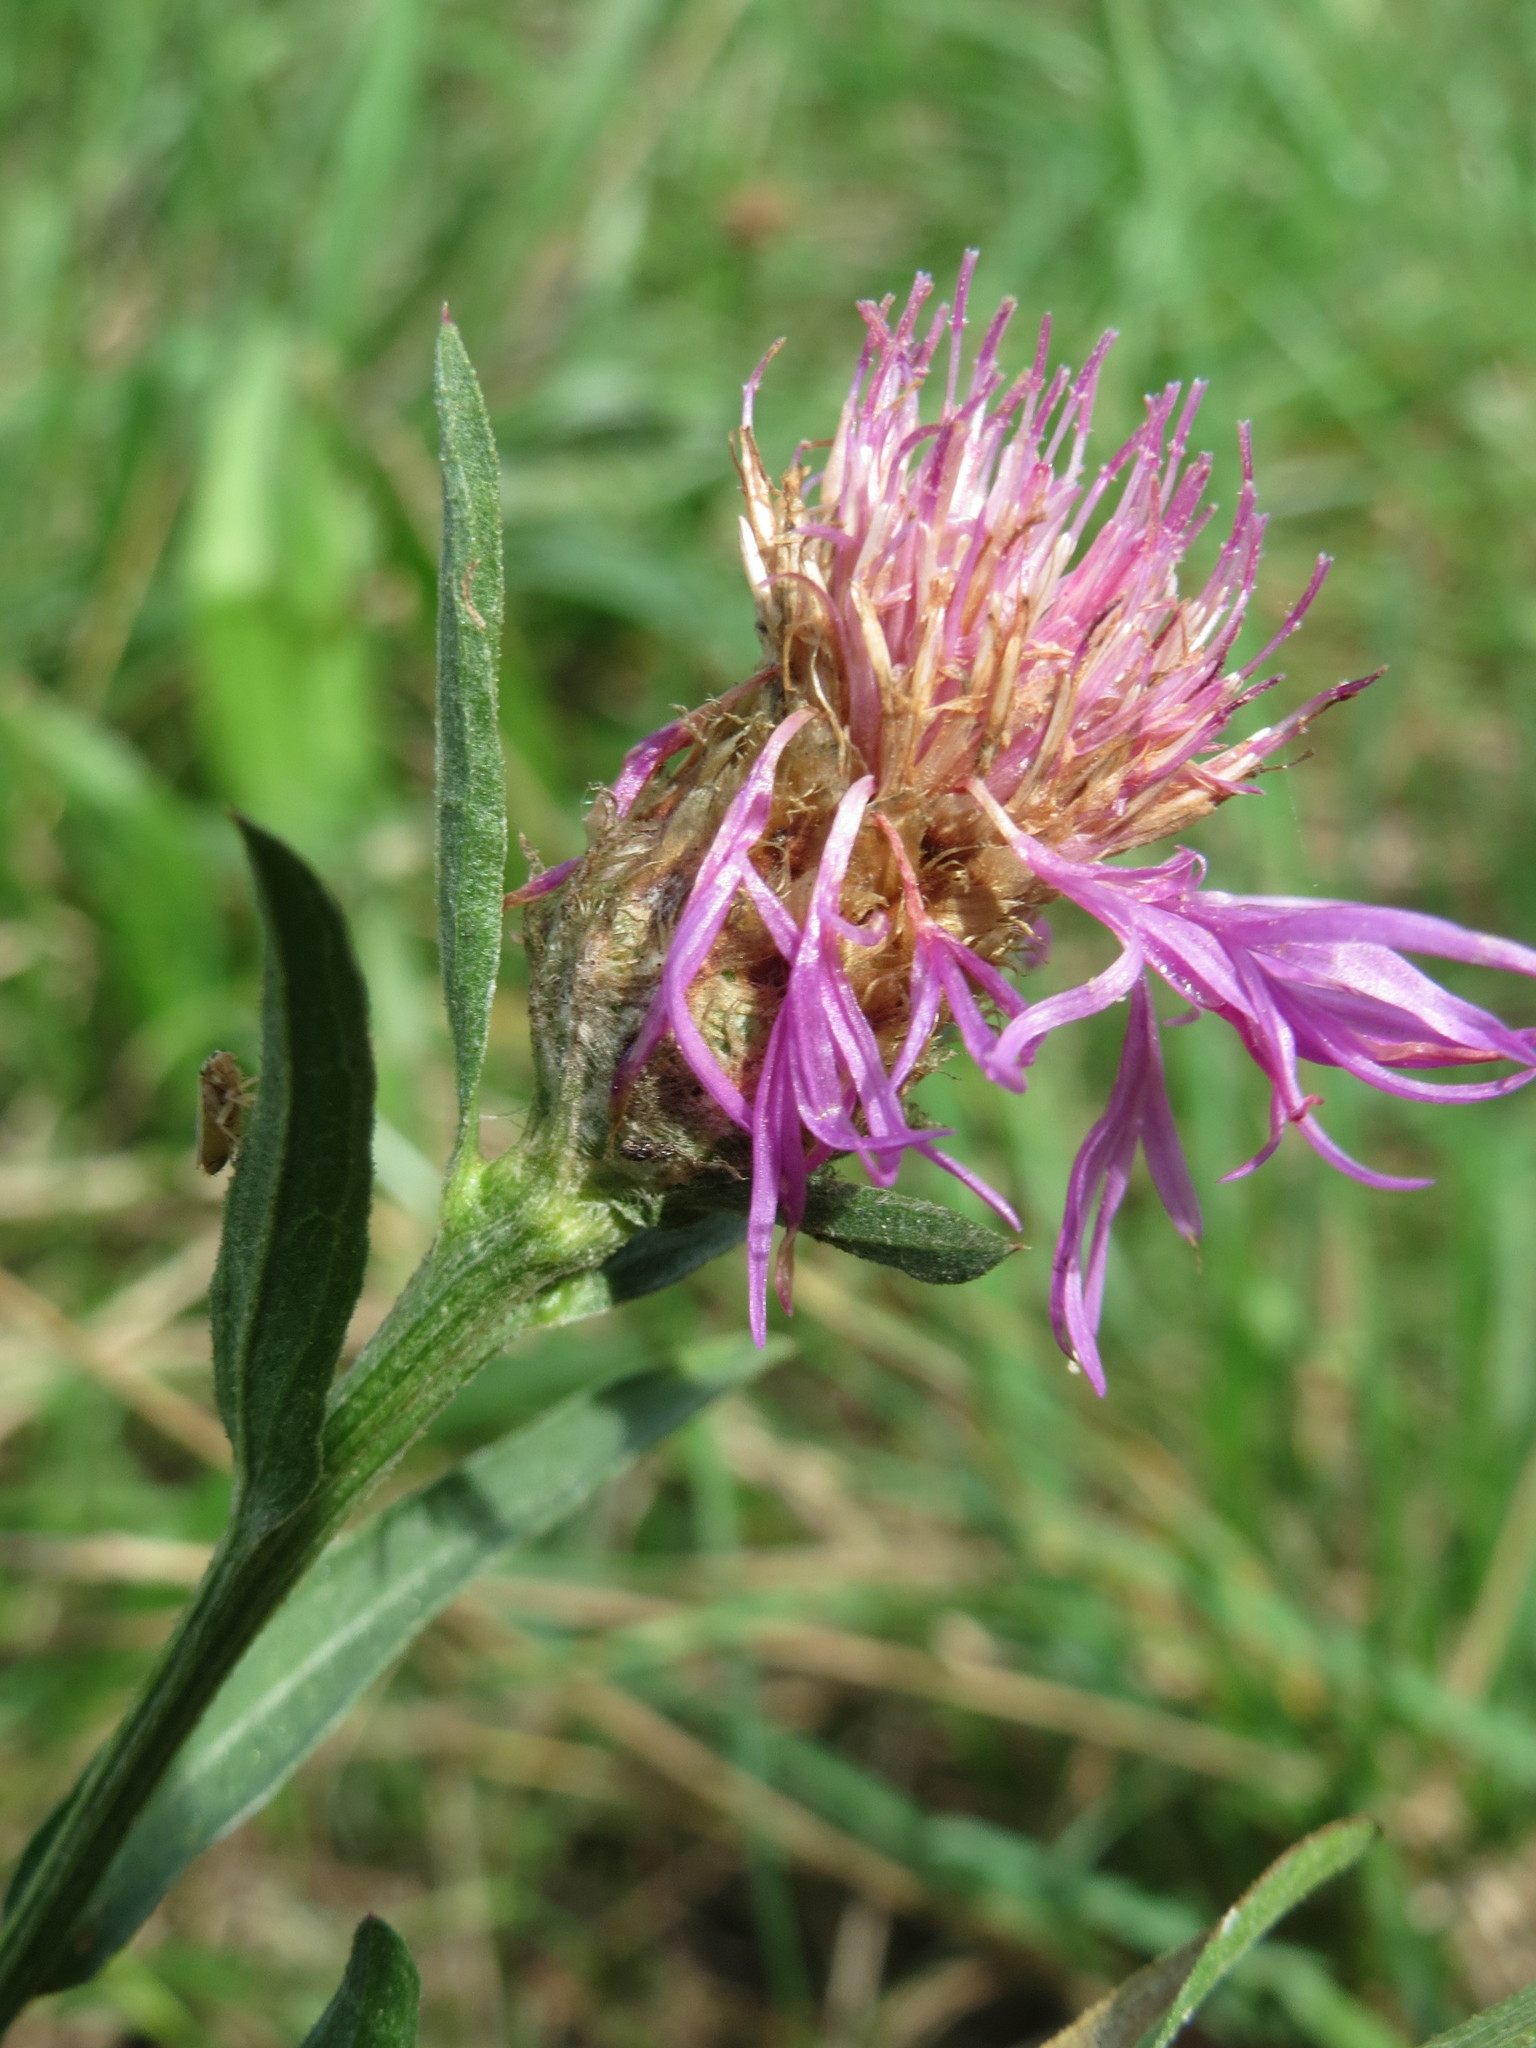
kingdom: Plantae
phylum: Tracheophyta
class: Magnoliopsida
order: Asterales
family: Asteraceae
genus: Centaurea
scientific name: Centaurea jacea
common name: Brown knapweed
